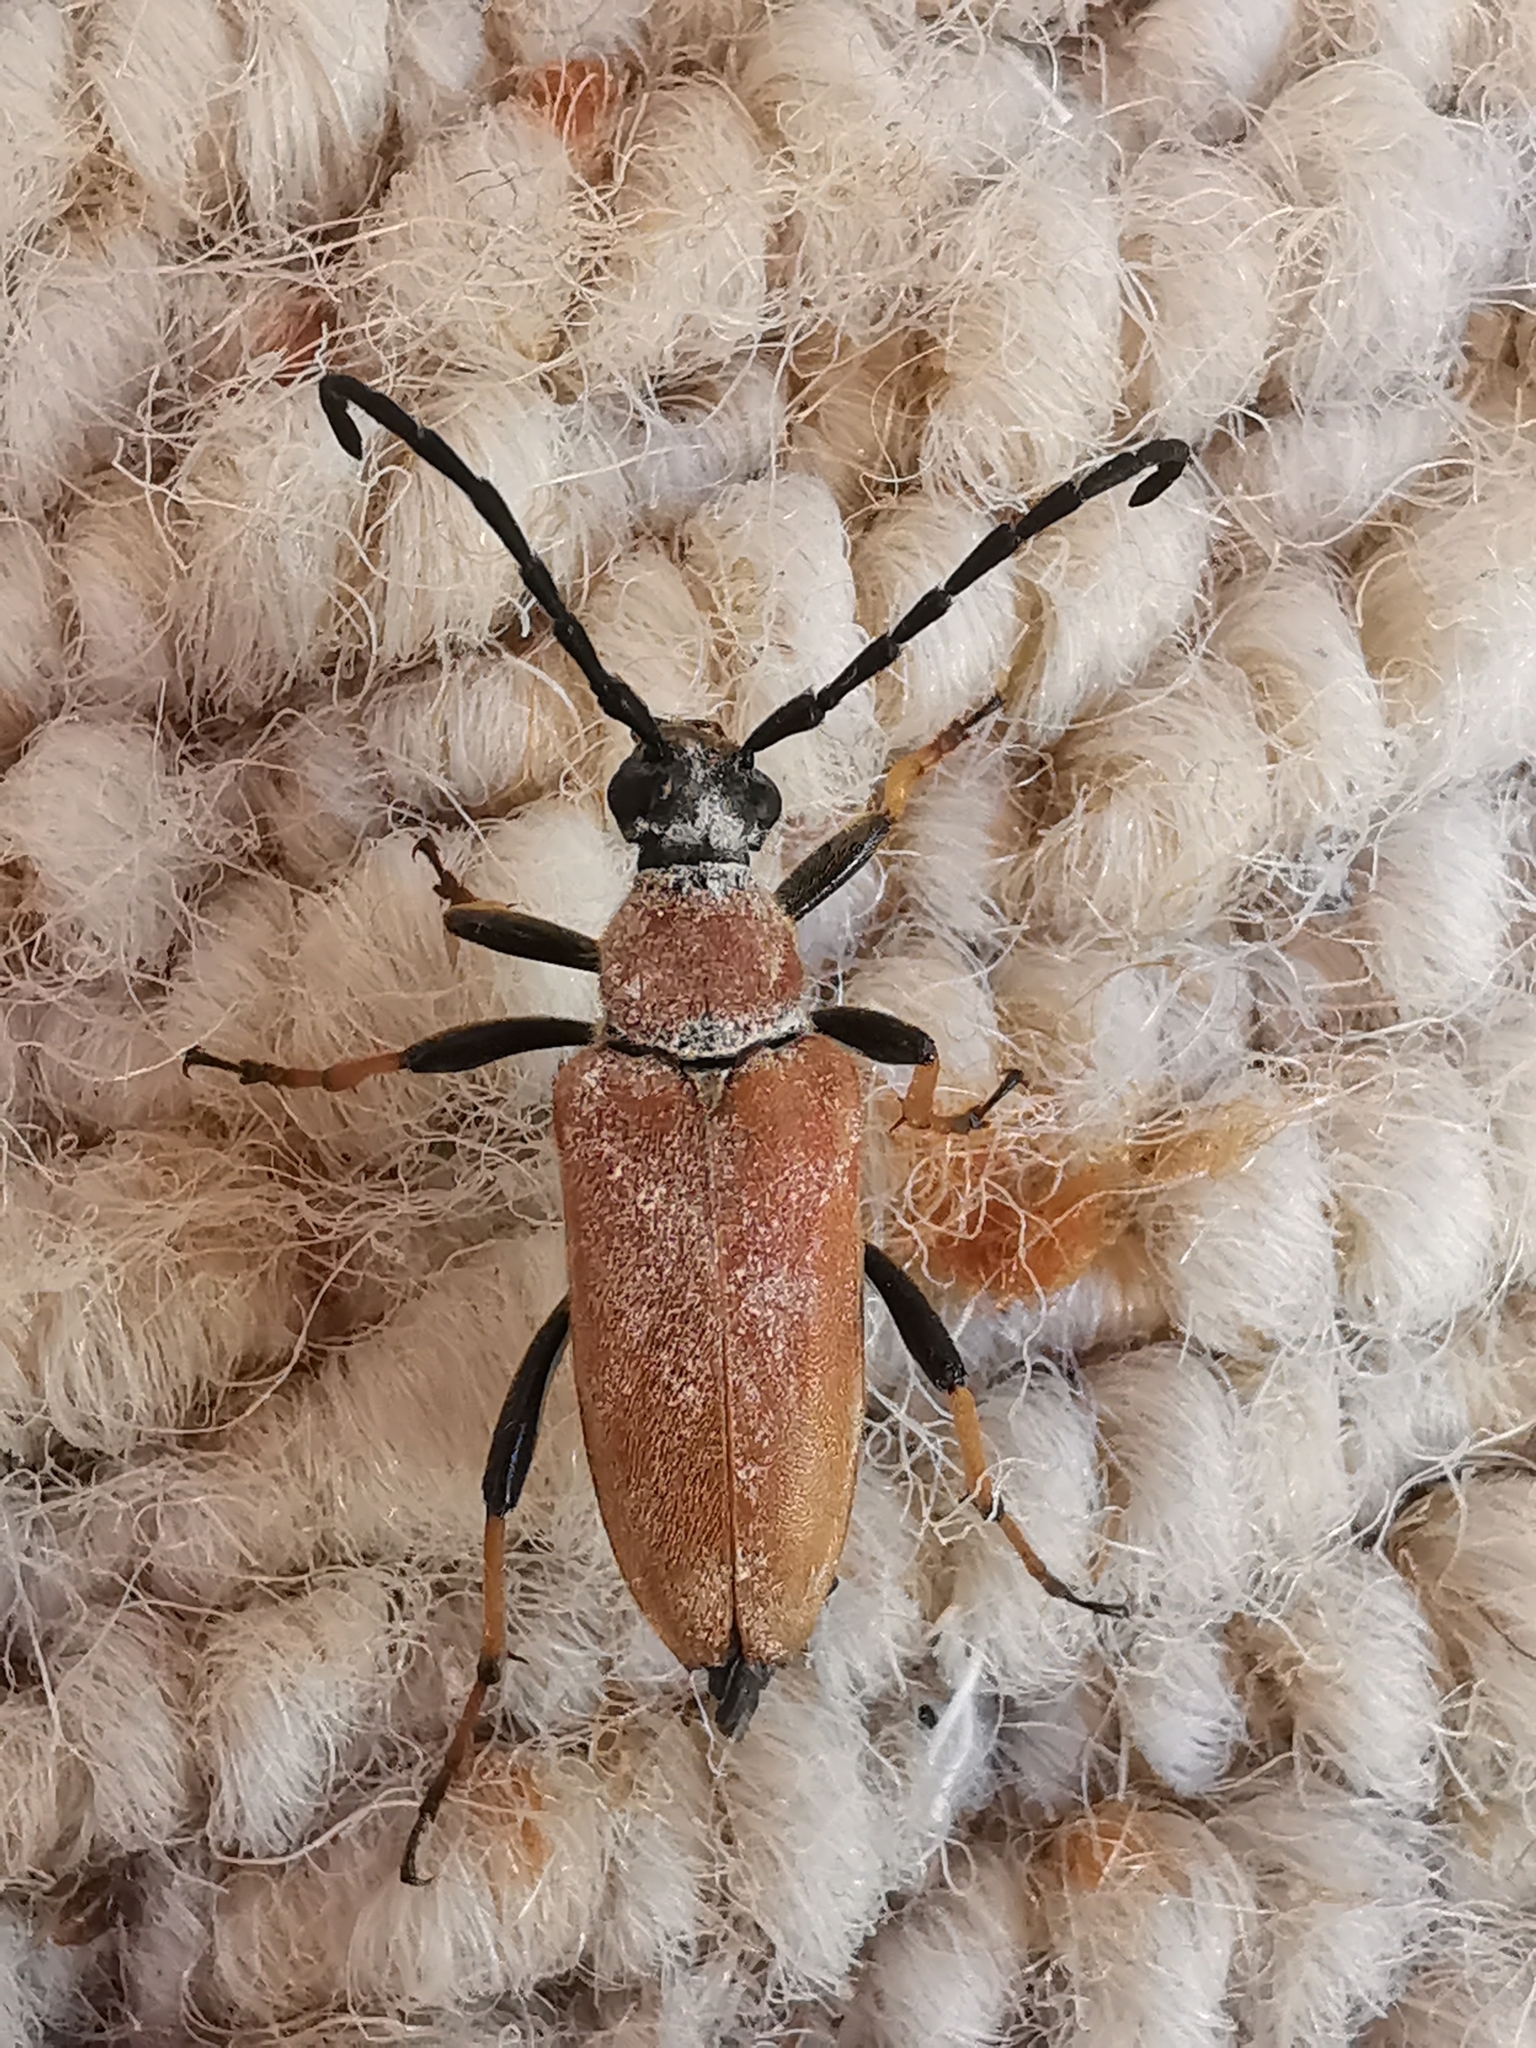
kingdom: Animalia
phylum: Arthropoda
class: Insecta
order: Coleoptera
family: Cerambycidae
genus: Stictoleptura
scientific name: Stictoleptura rubra
